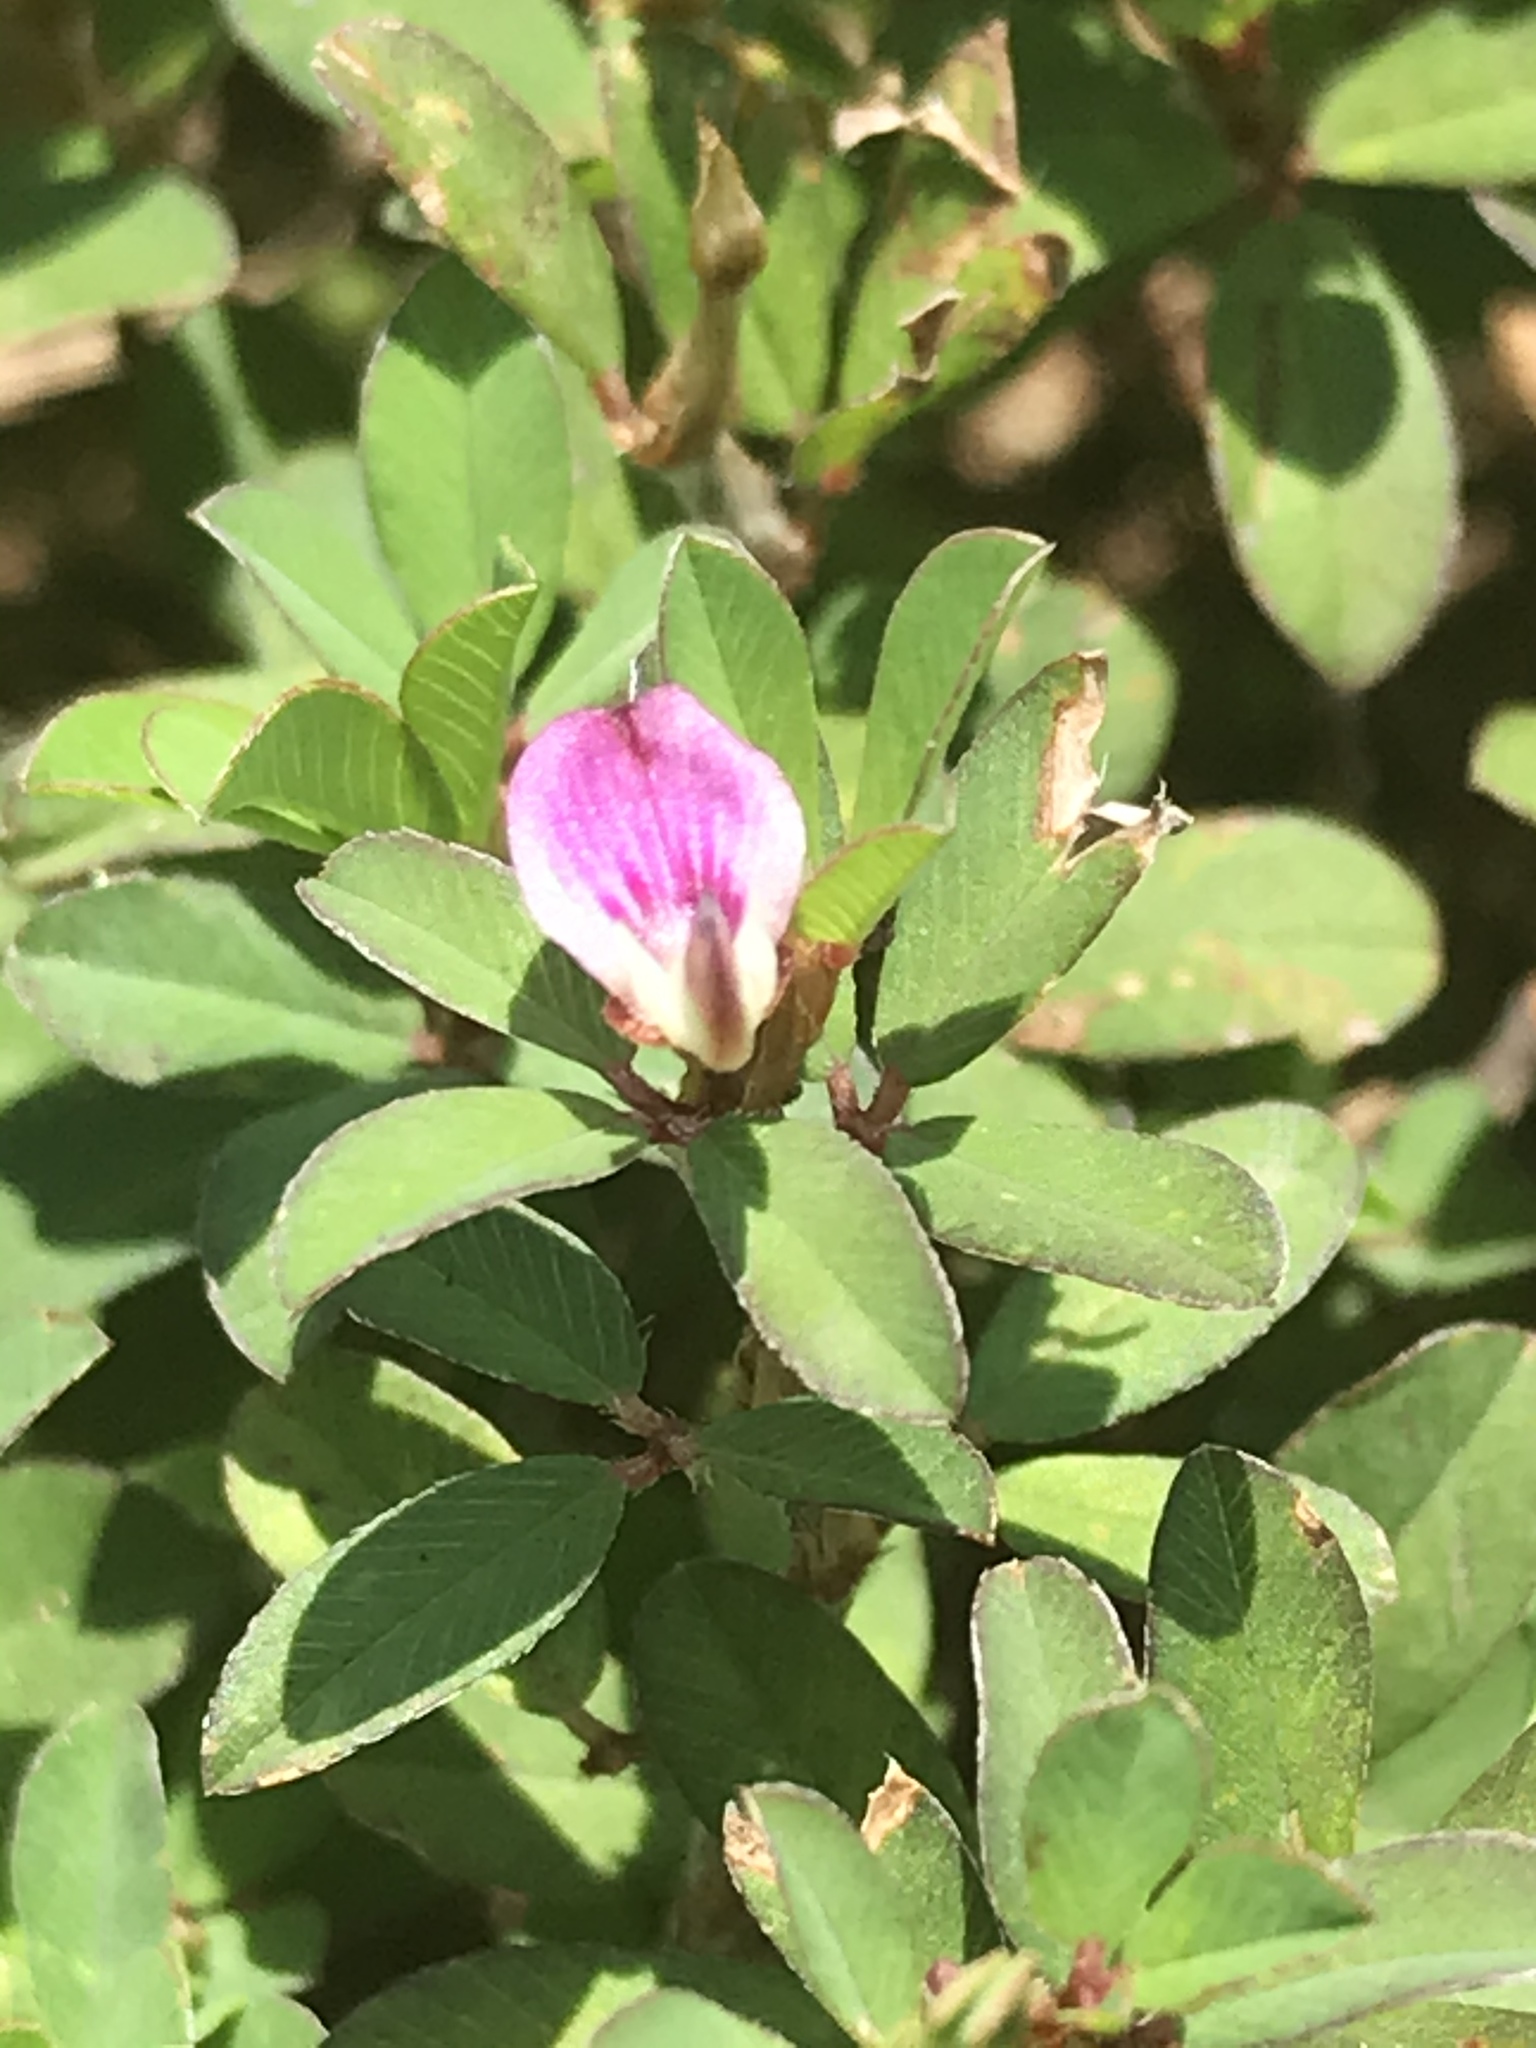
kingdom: Plantae
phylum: Tracheophyta
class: Magnoliopsida
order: Fabales
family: Fabaceae
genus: Kummerowia
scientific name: Kummerowia striata
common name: Japanese clover
